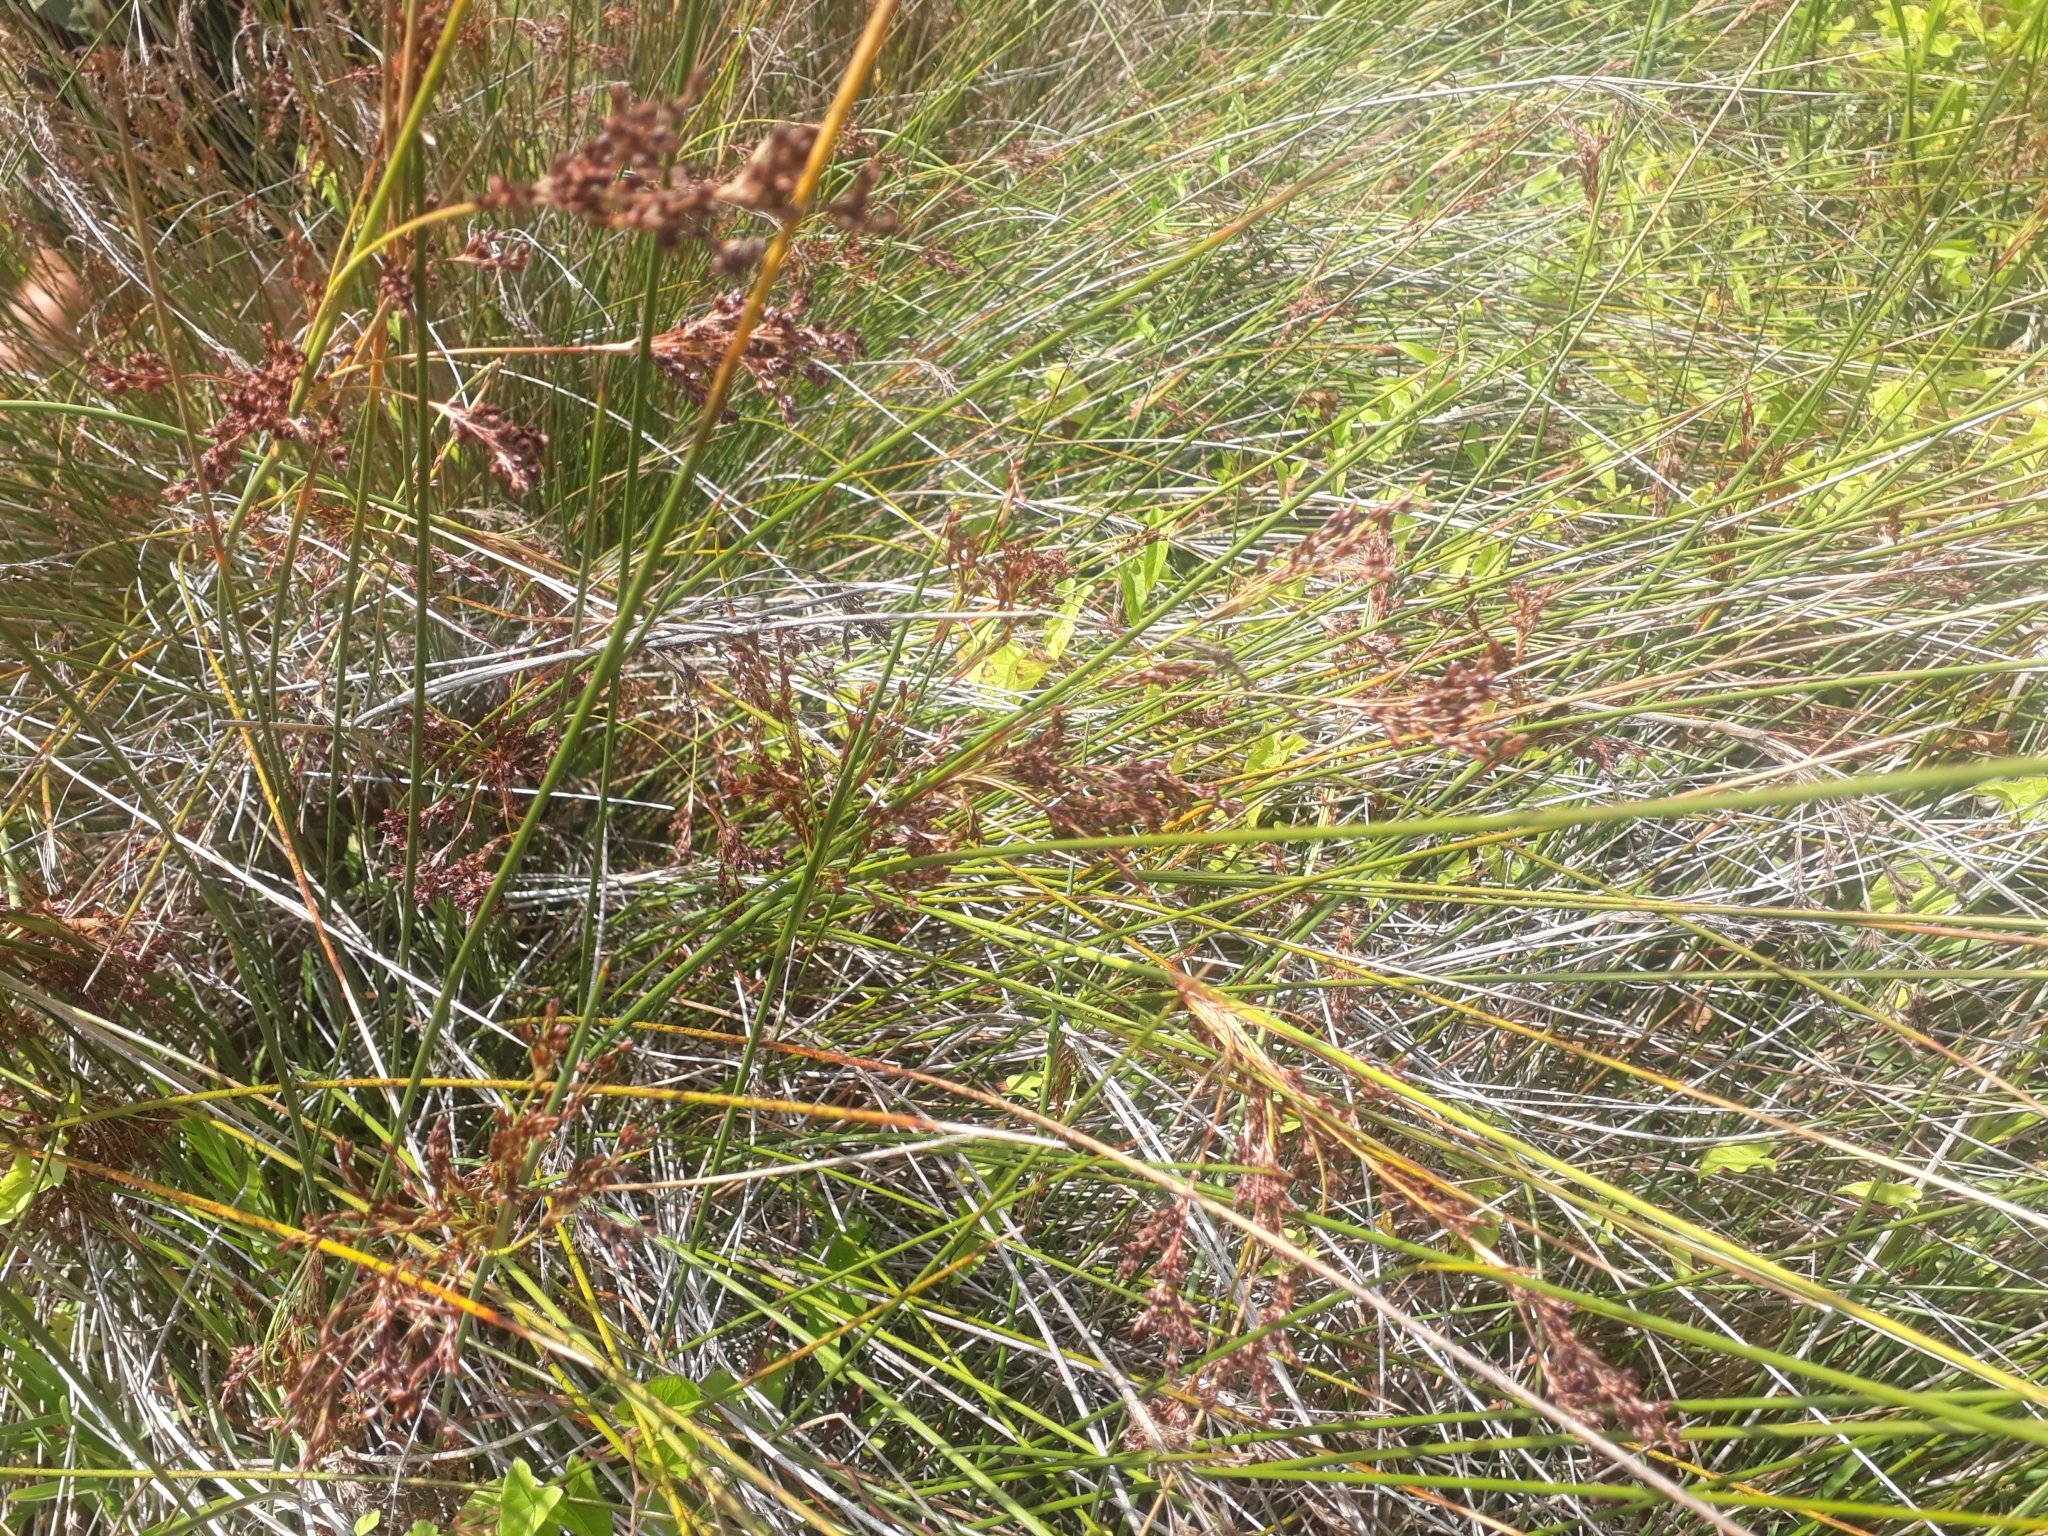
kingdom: Plantae
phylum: Tracheophyta
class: Liliopsida
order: Poales
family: Juncaceae
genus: Juncus
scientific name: Juncus kraussii
